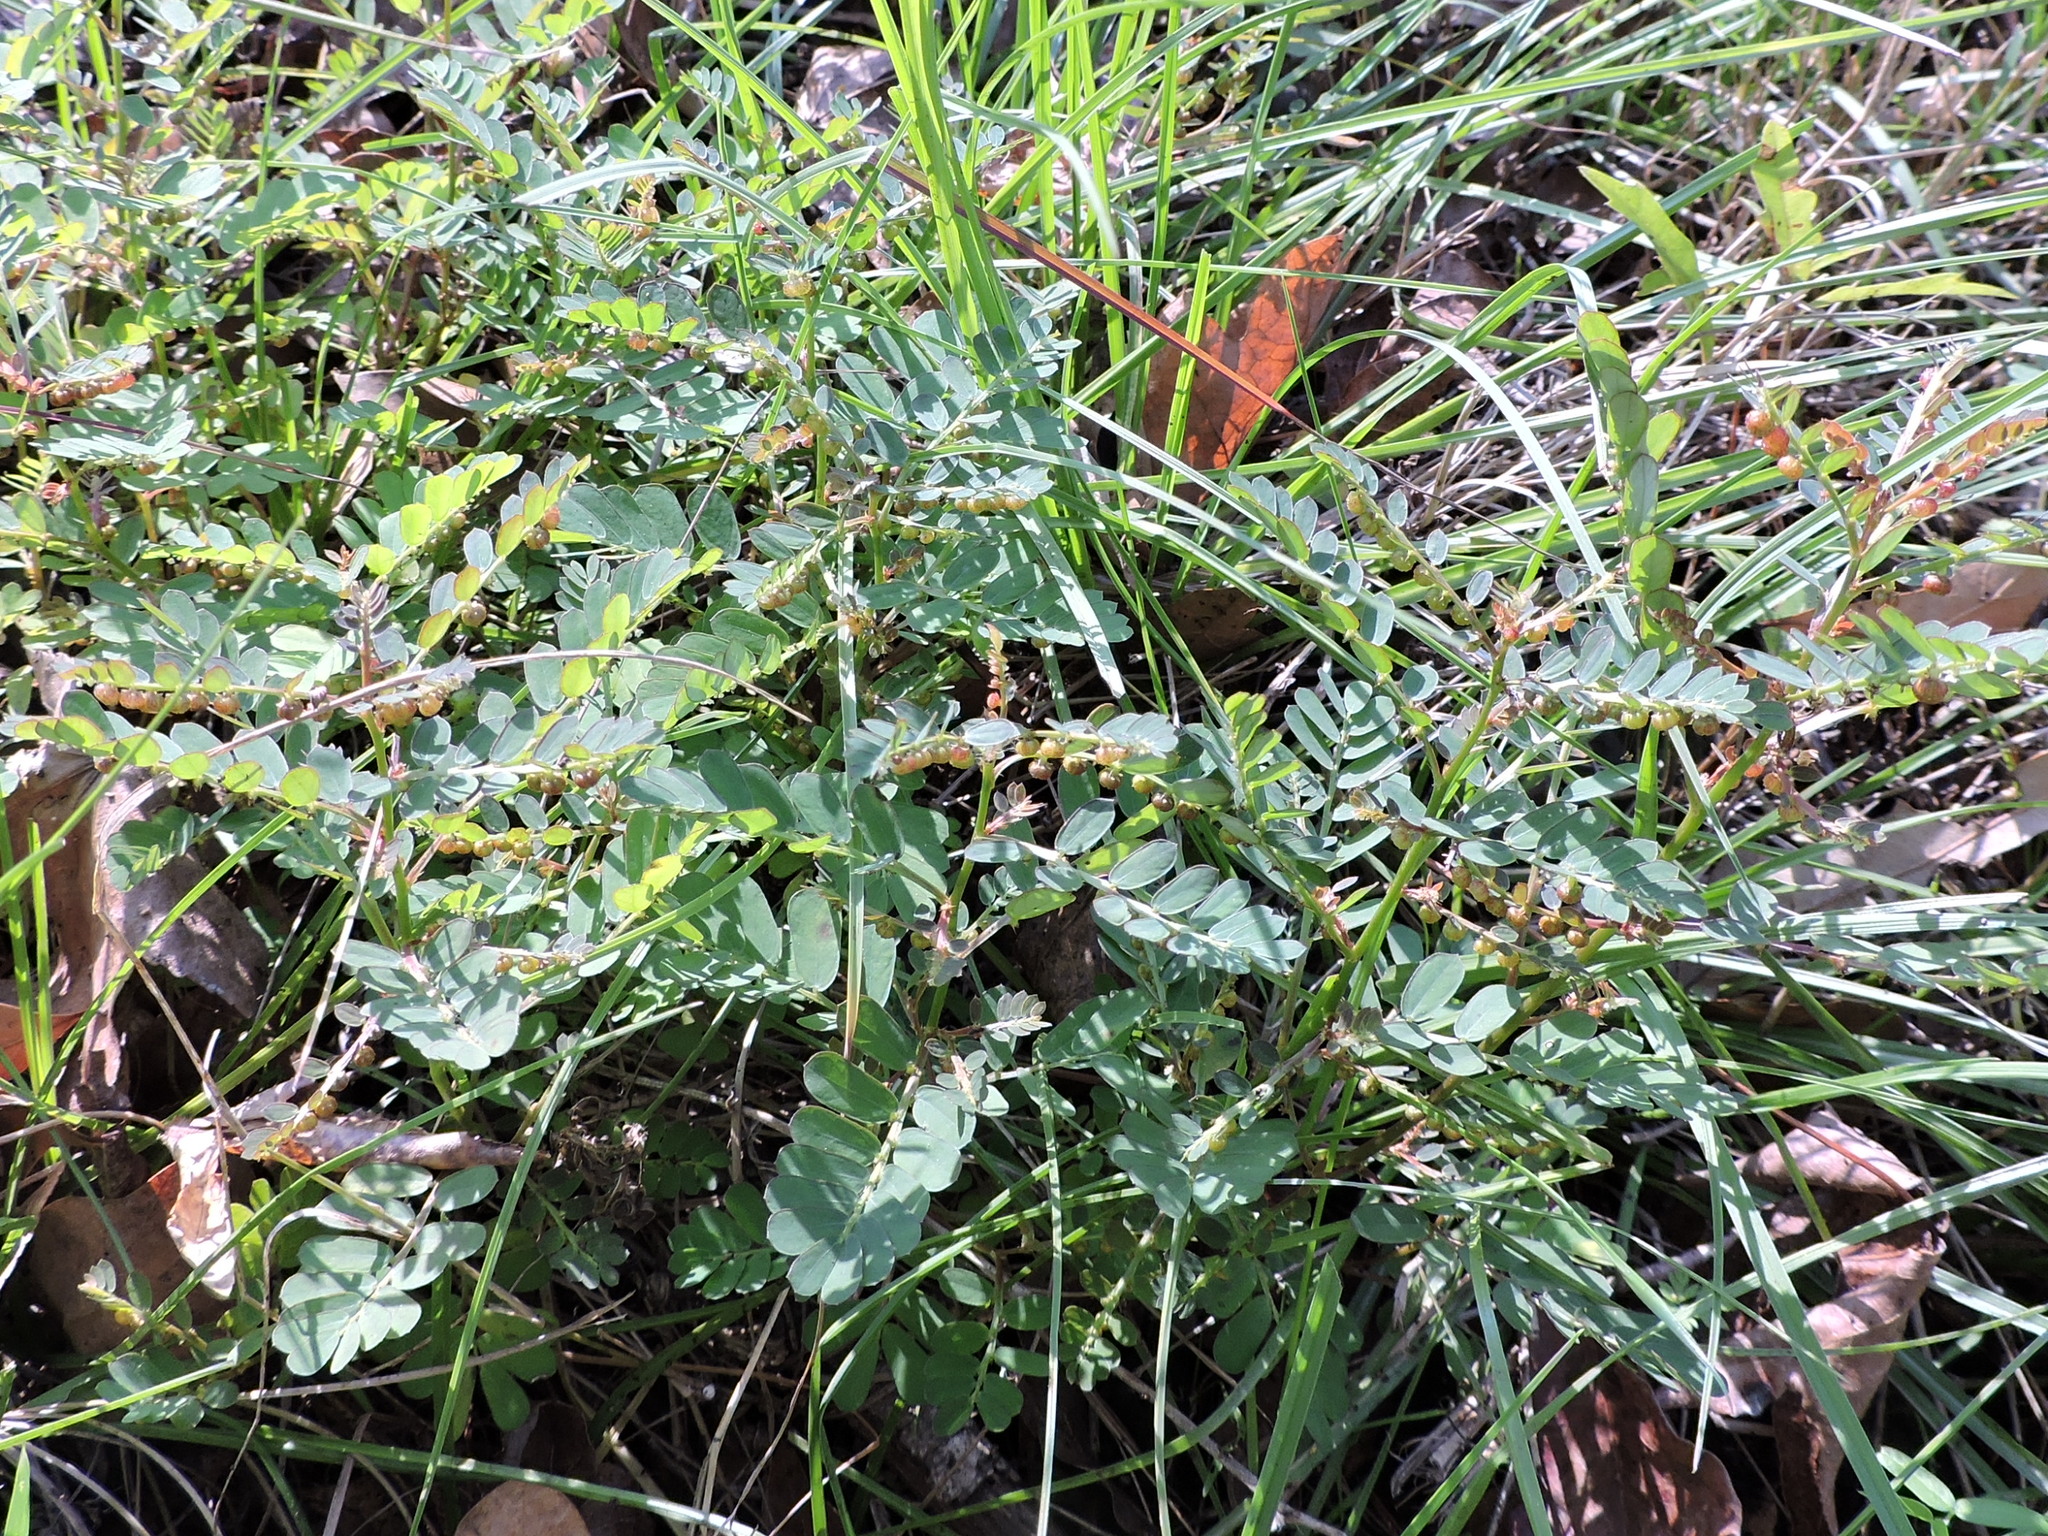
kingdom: Plantae
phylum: Tracheophyta
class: Magnoliopsida
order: Malpighiales
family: Phyllanthaceae
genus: Phyllanthus
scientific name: Phyllanthus urinaria
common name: Chamber bitter
